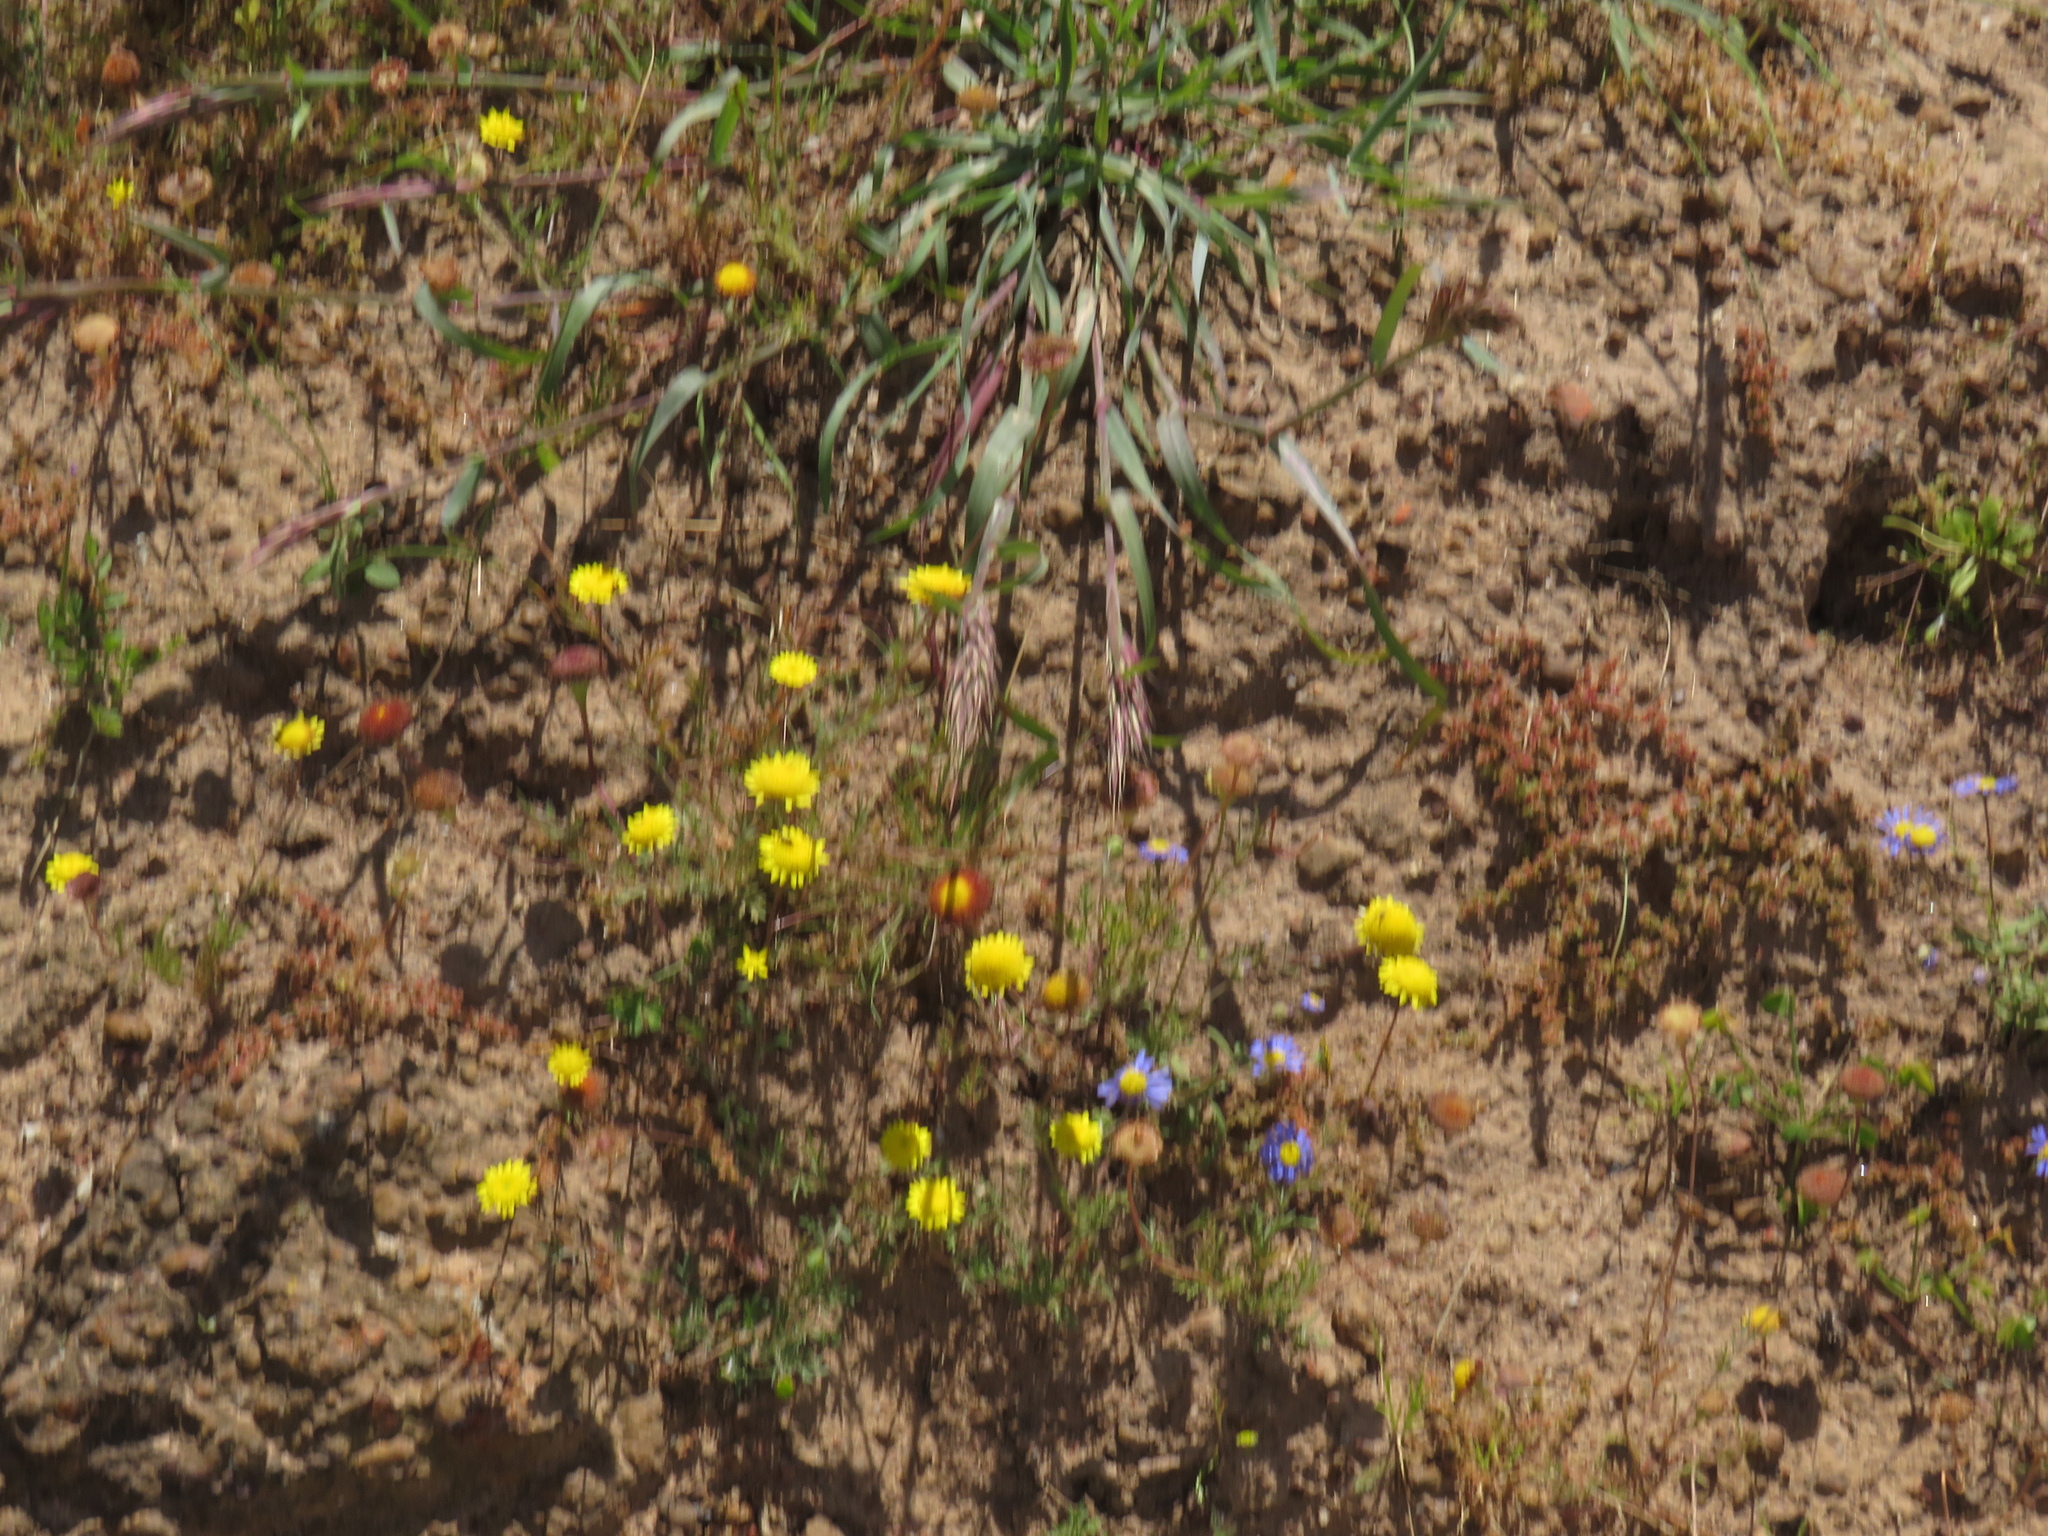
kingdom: Plantae
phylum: Tracheophyta
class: Magnoliopsida
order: Asterales
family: Asteraceae
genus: Cotula
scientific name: Cotula pruinosa
